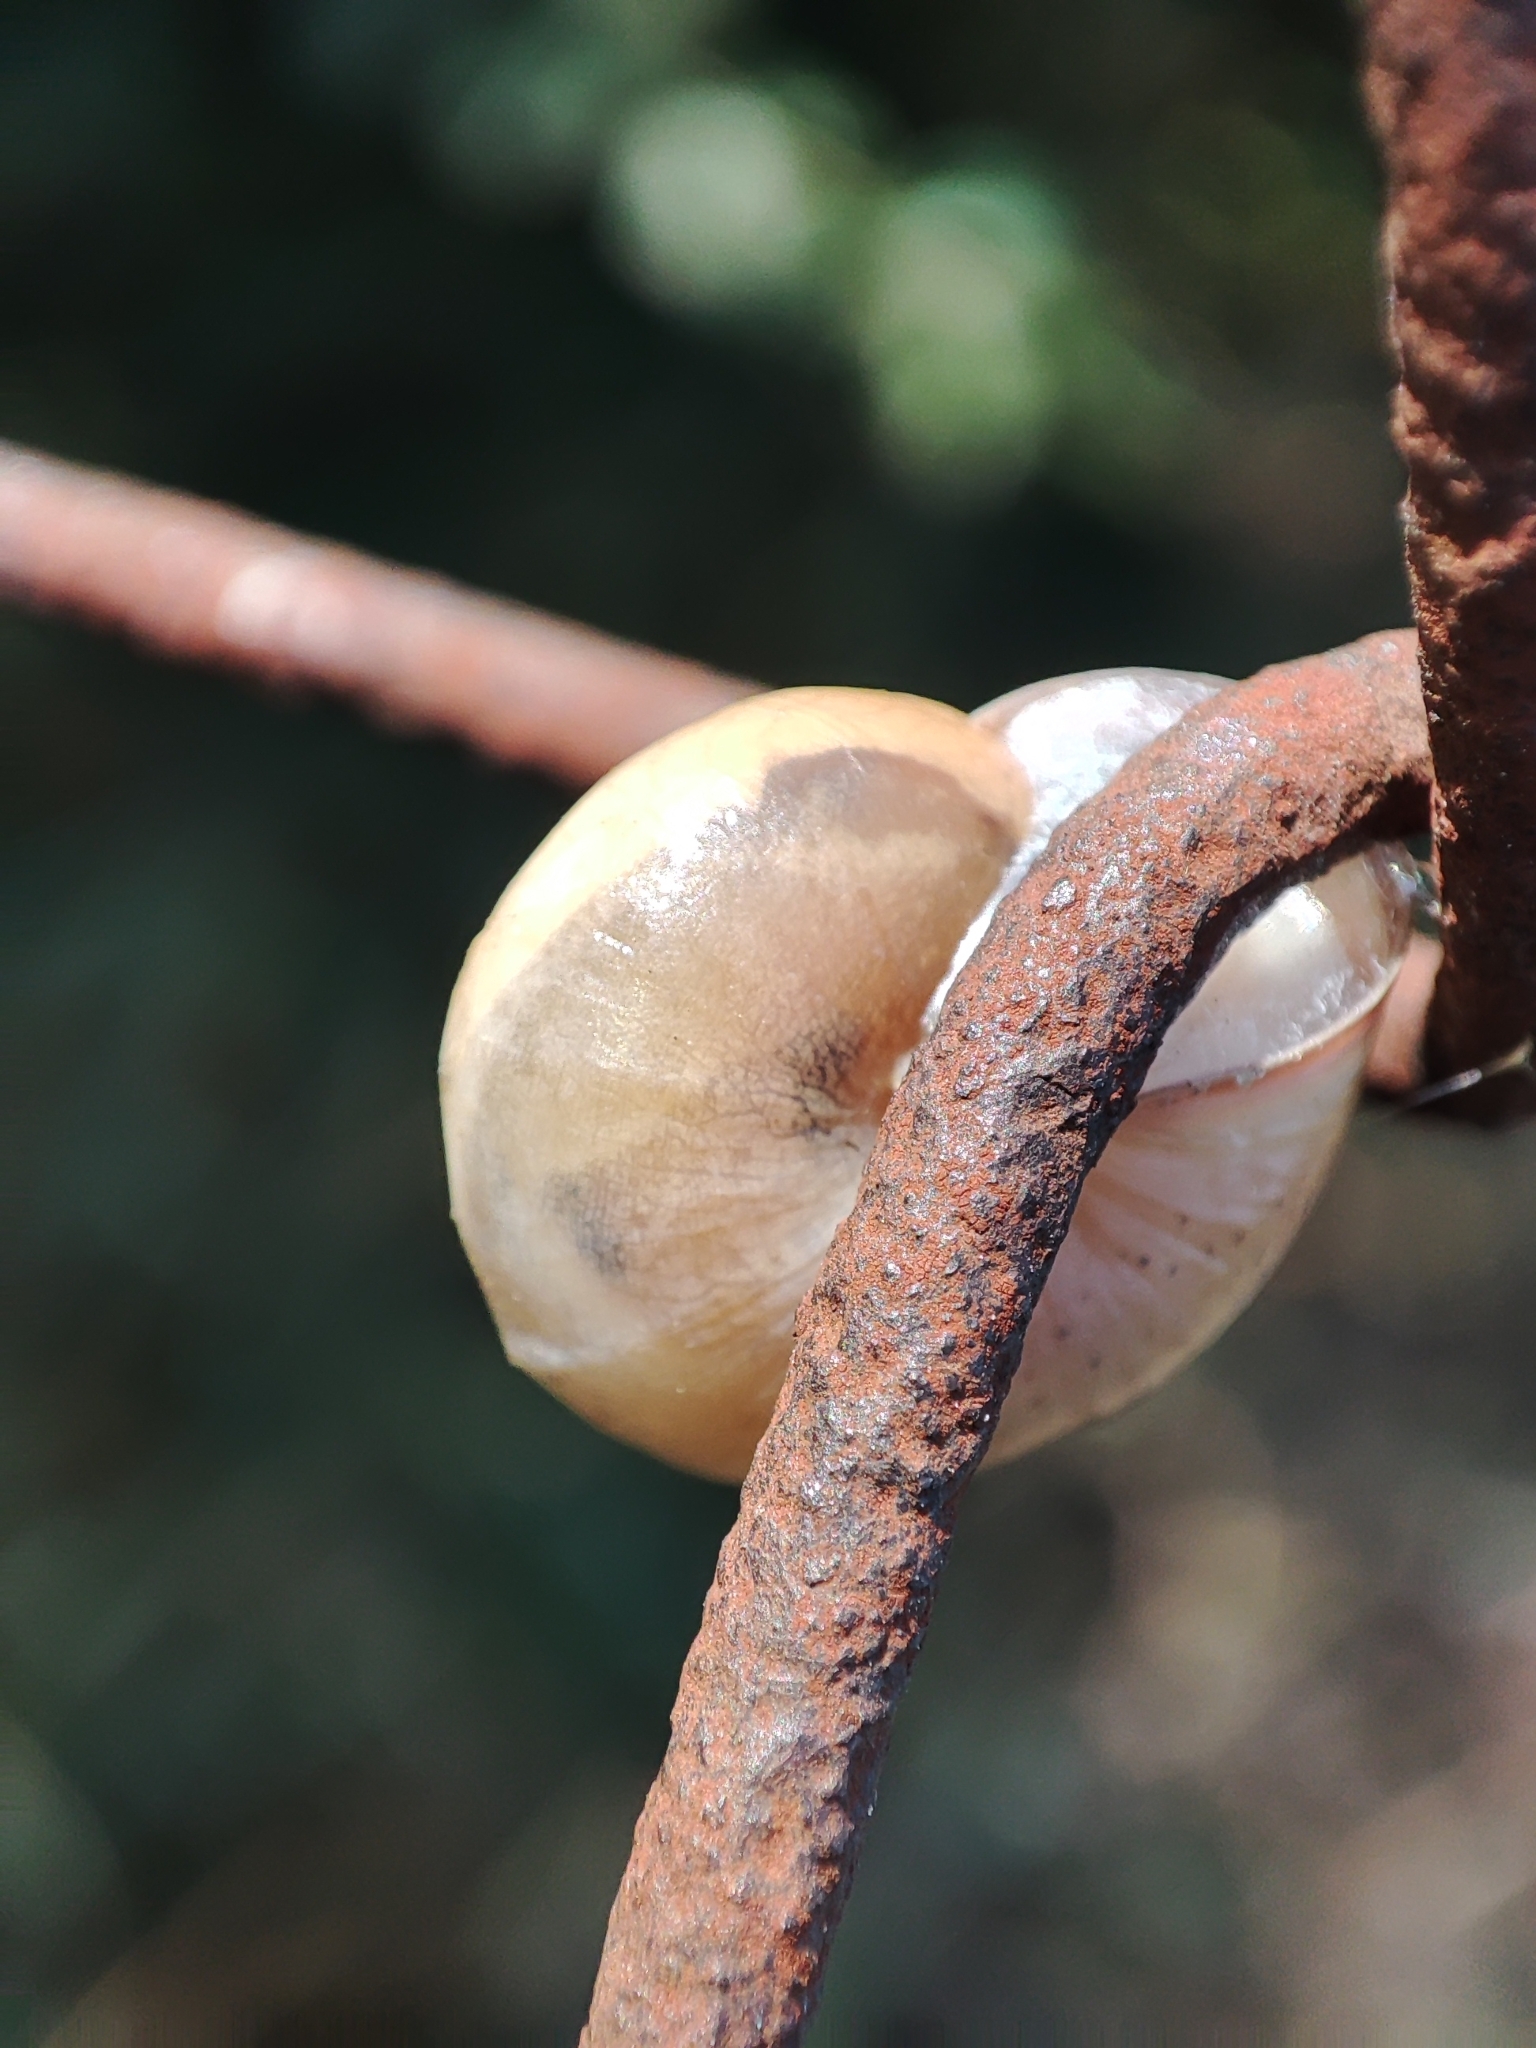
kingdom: Animalia
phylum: Mollusca
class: Gastropoda
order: Stylommatophora
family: Hygromiidae
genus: Monacha
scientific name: Monacha cartusiana
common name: Carthusian snail
